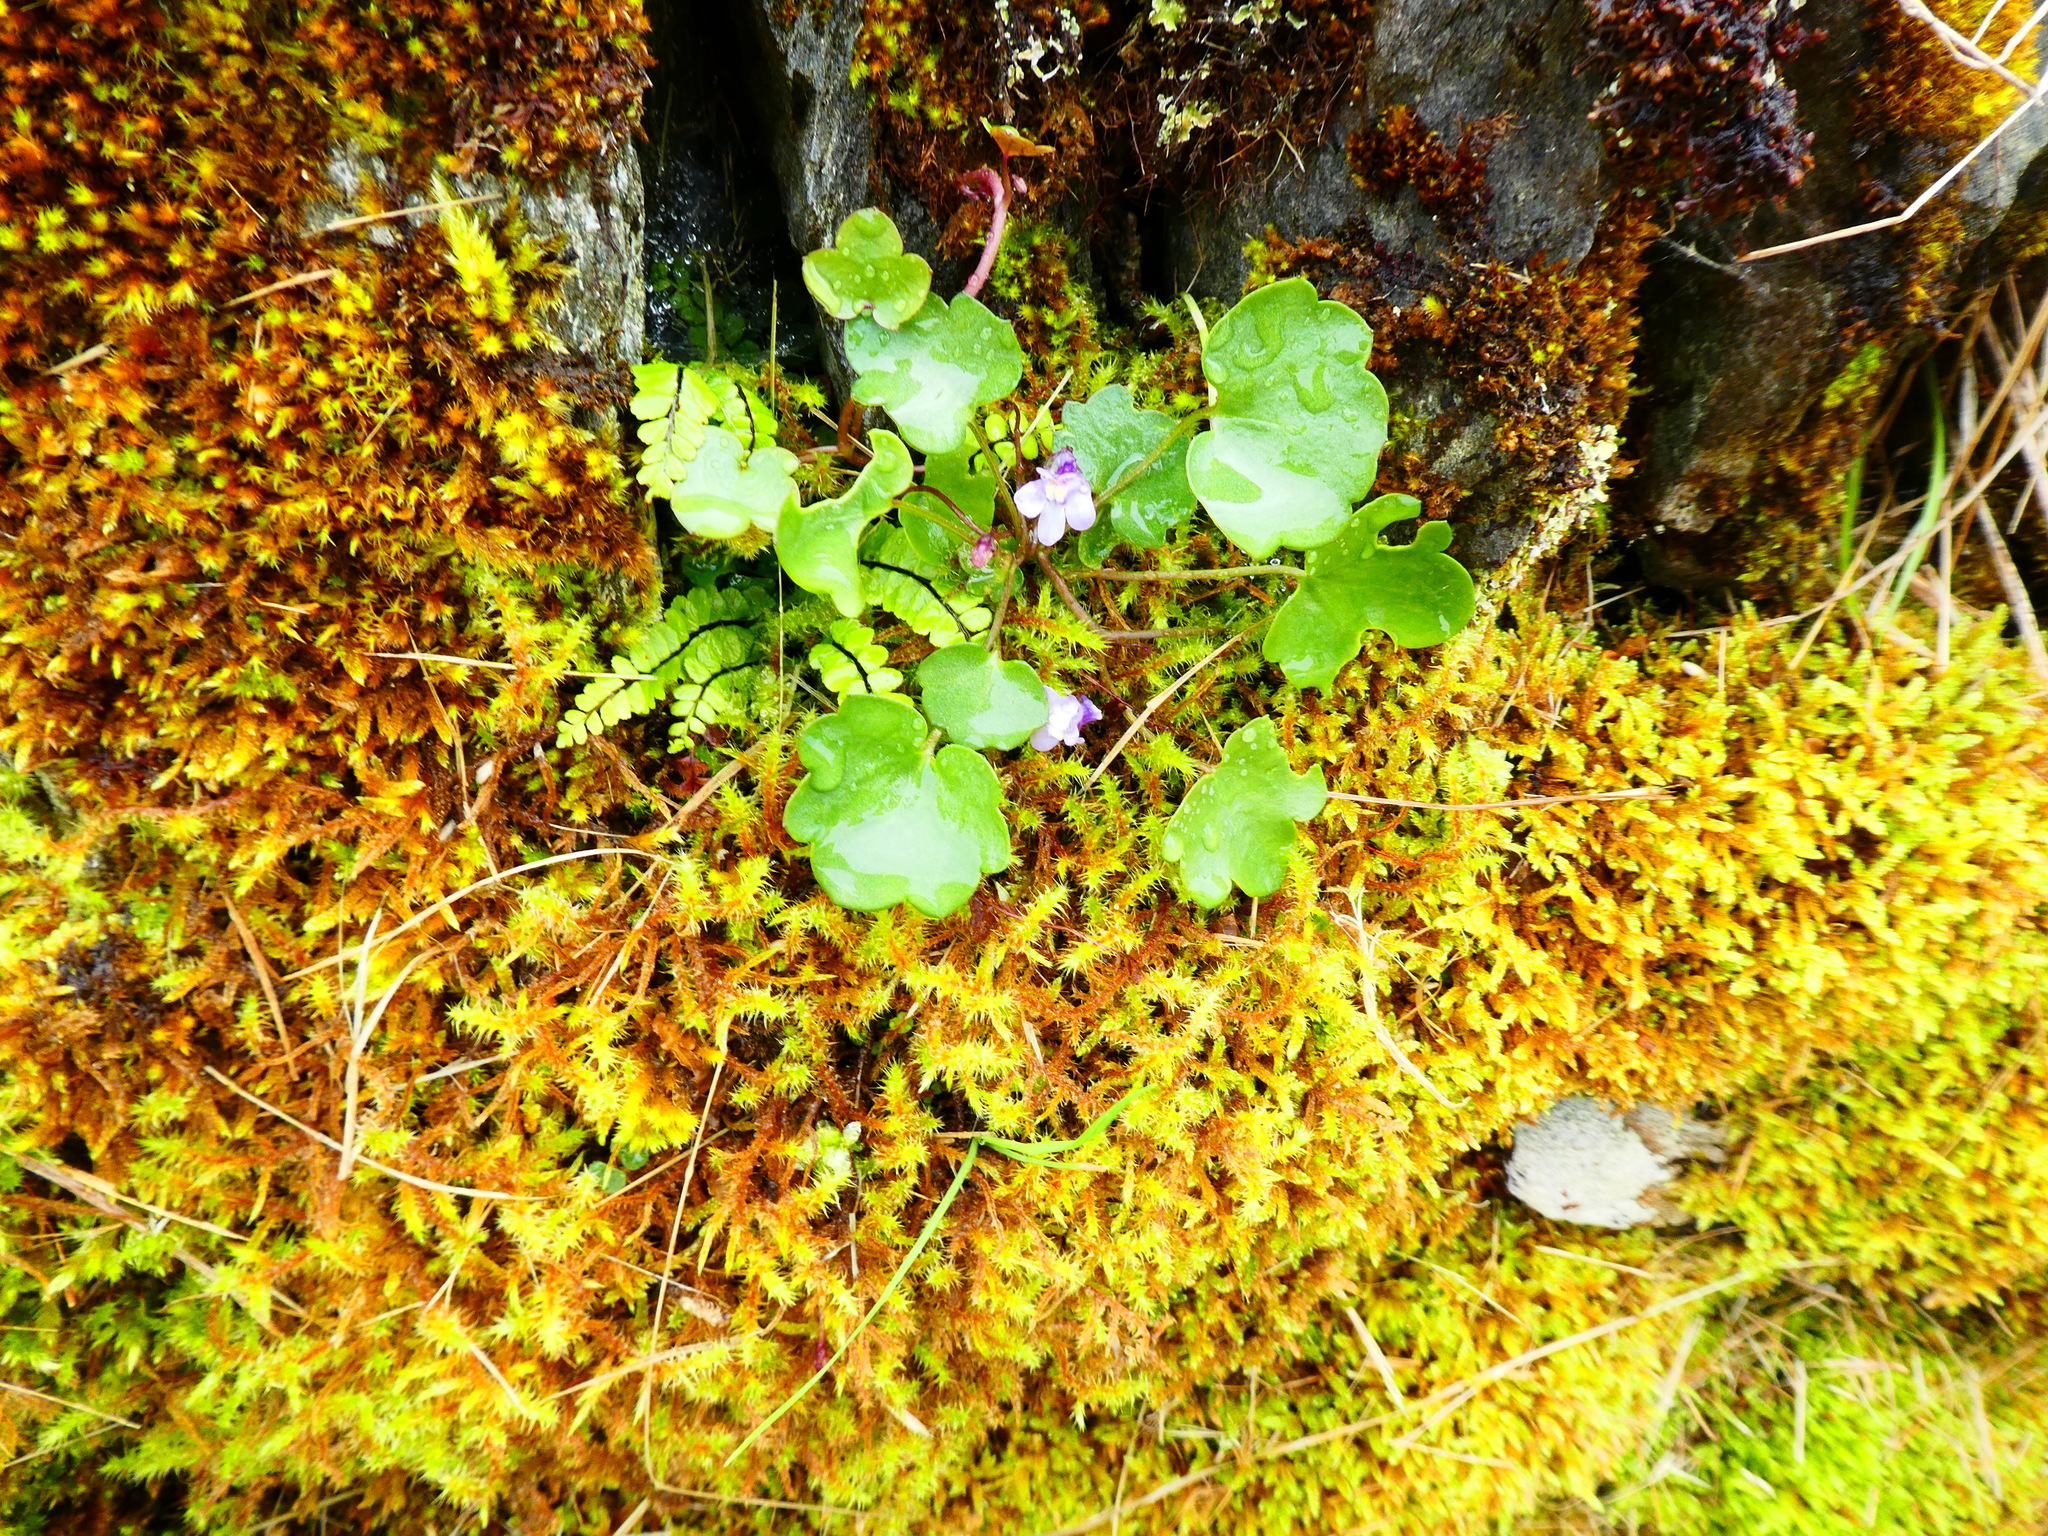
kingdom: Plantae
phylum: Tracheophyta
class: Magnoliopsida
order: Lamiales
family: Plantaginaceae
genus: Cymbalaria
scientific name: Cymbalaria muralis
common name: Ivy-leaved toadflax
